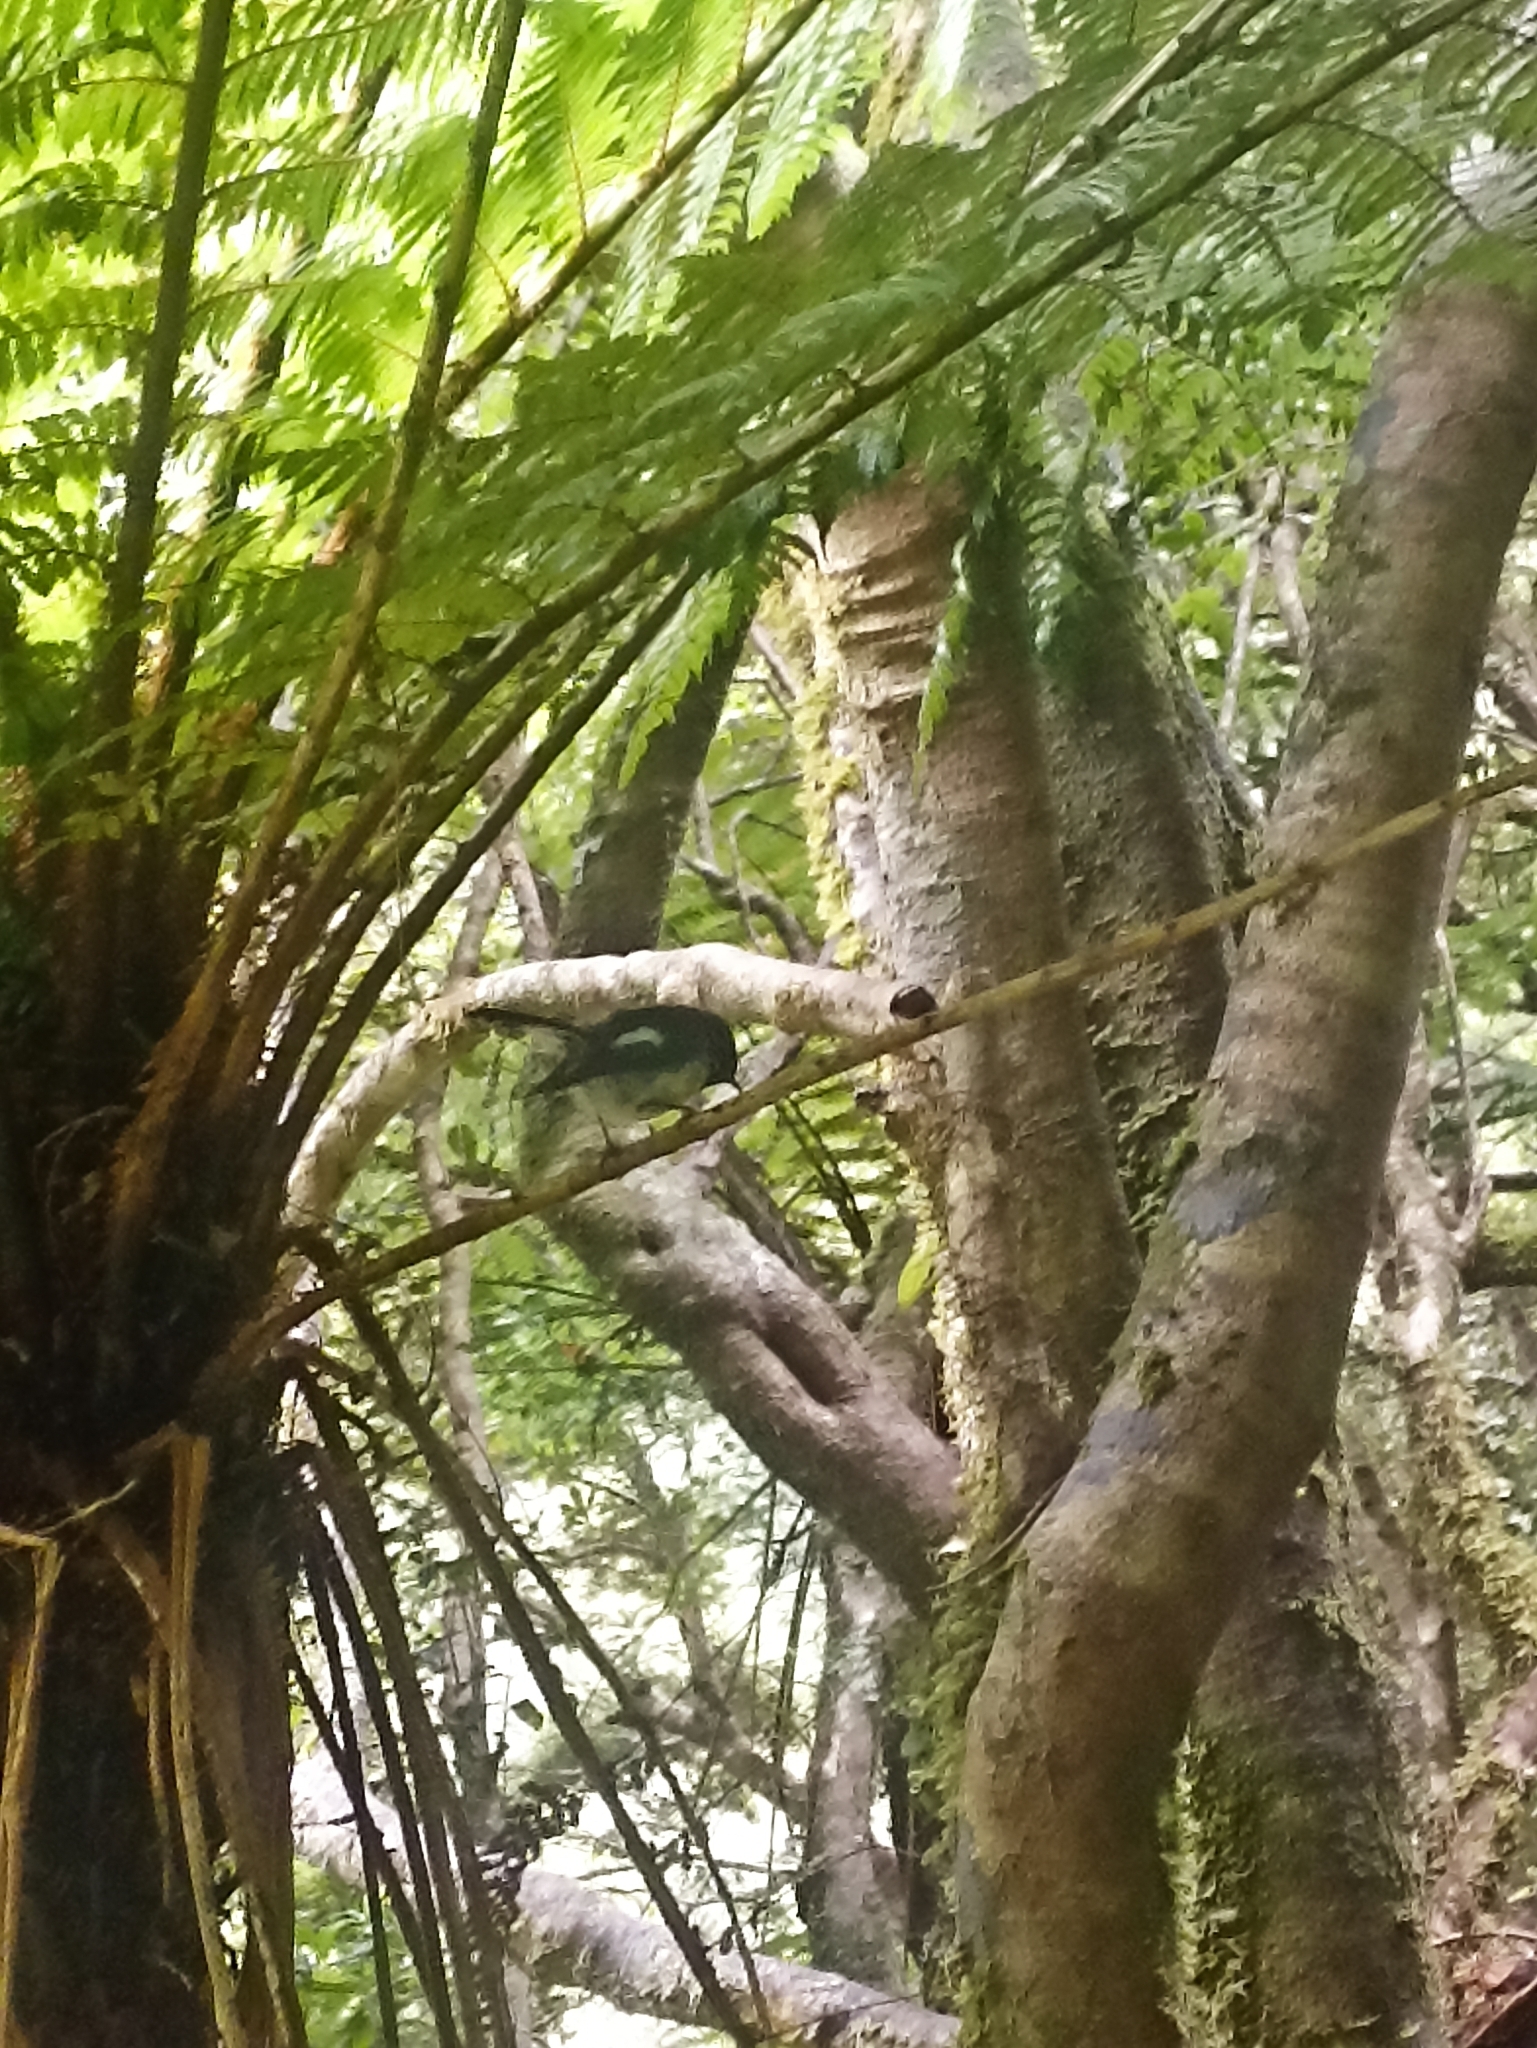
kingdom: Animalia
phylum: Chordata
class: Aves
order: Passeriformes
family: Petroicidae
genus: Petroica
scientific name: Petroica macrocephala
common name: Tomtit
